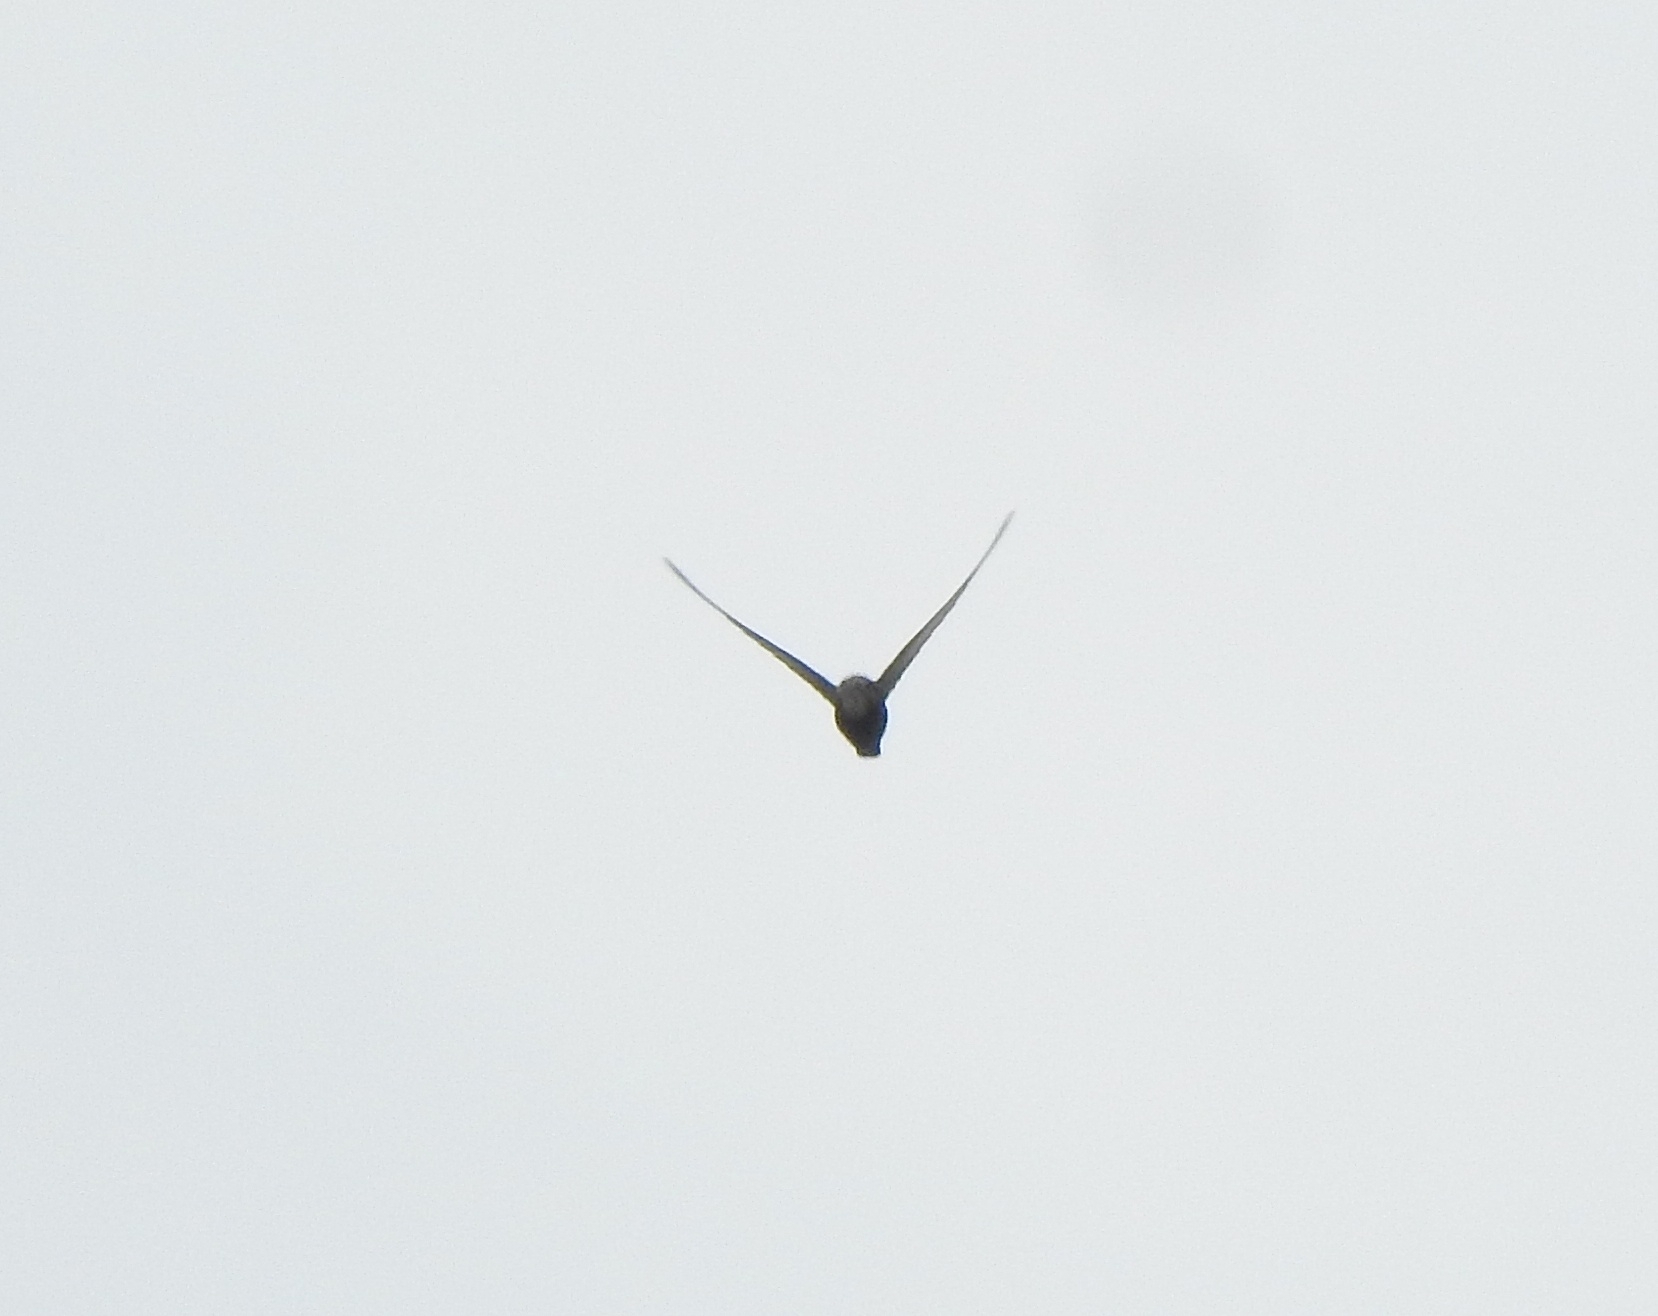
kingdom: Animalia
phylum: Chordata
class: Aves
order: Apodiformes
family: Apodidae
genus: Apus
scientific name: Apus affinis
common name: Little swift
